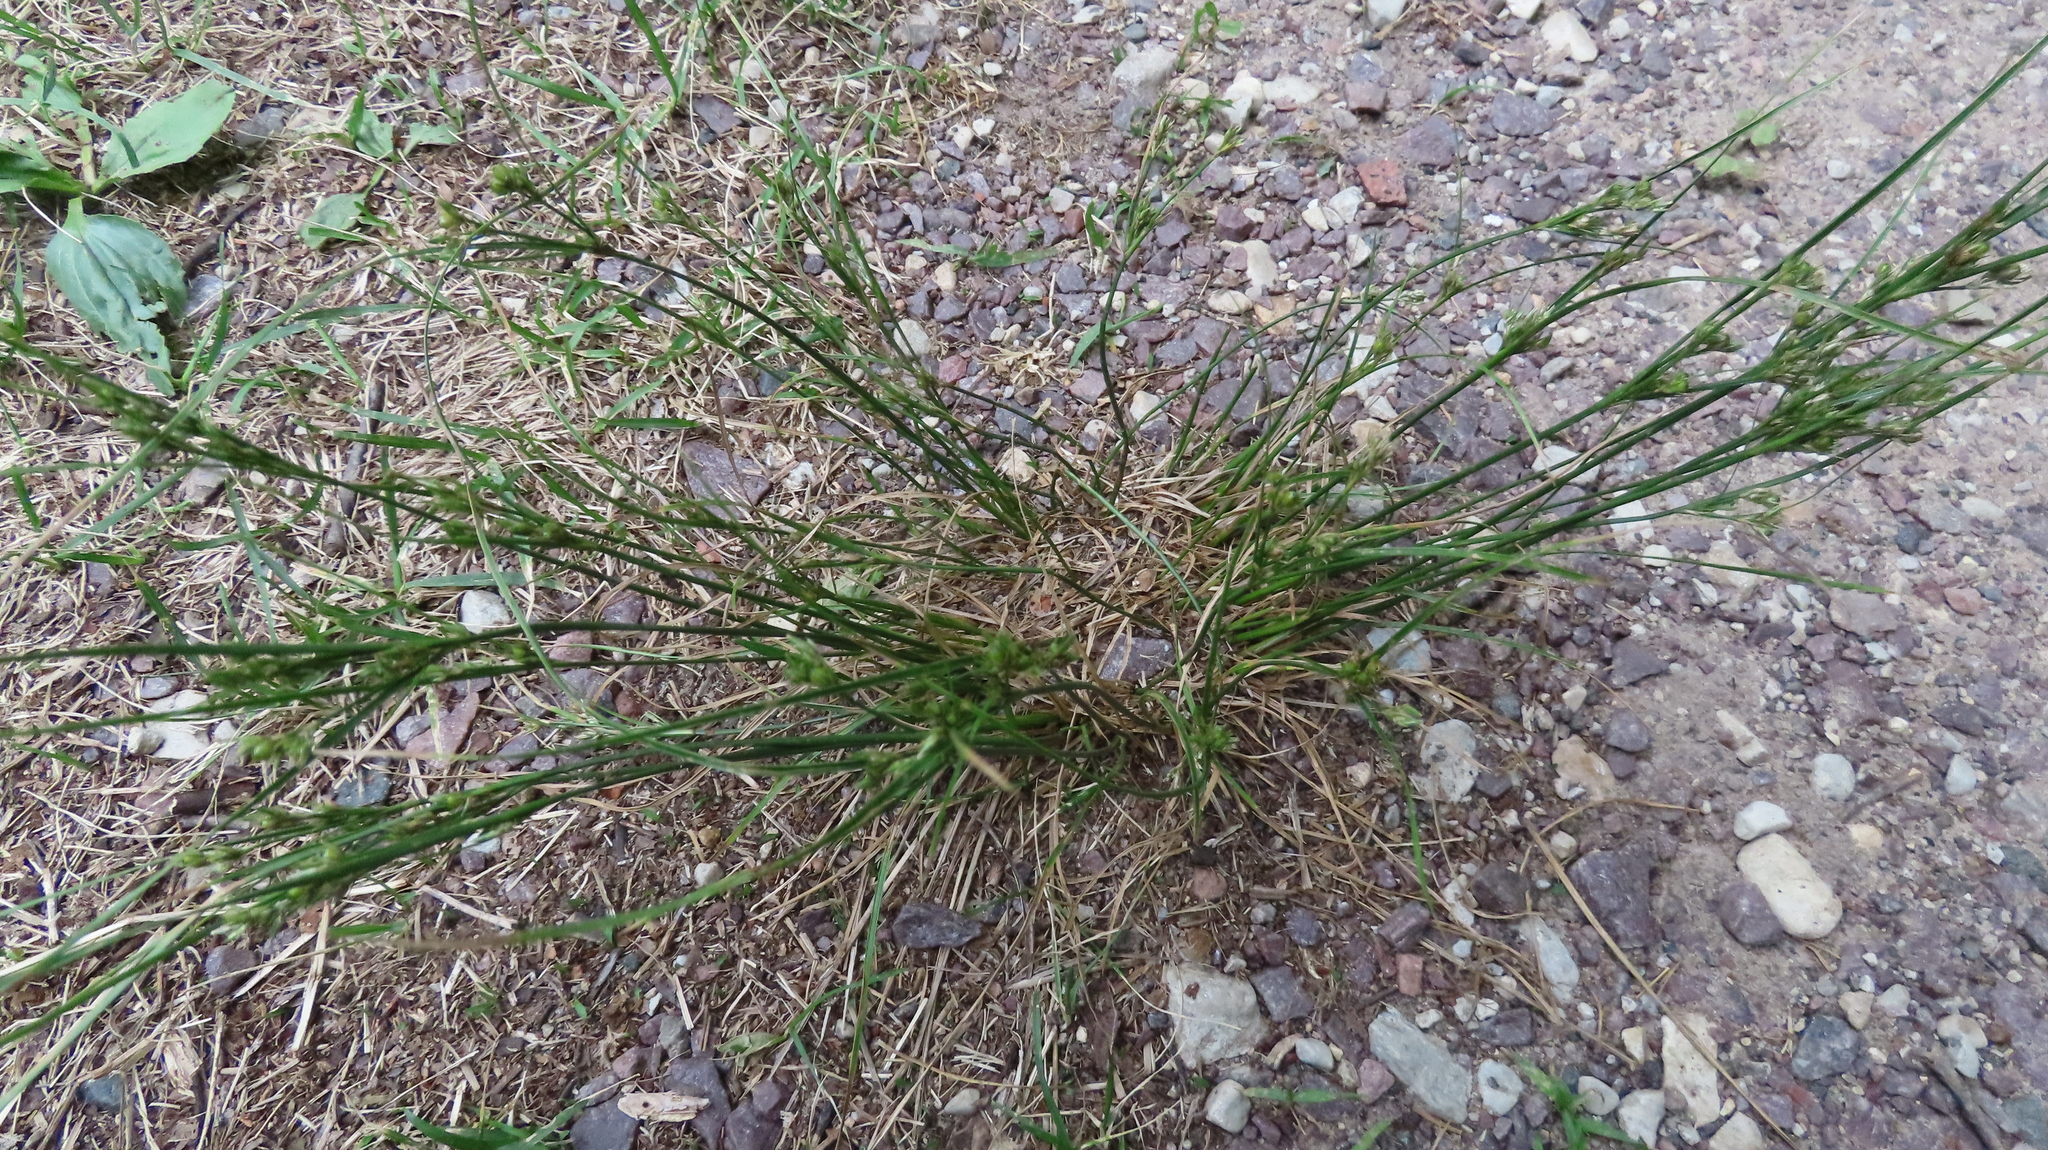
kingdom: Plantae
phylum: Tracheophyta
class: Liliopsida
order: Poales
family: Juncaceae
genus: Juncus
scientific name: Juncus tenuis
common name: Slender rush
